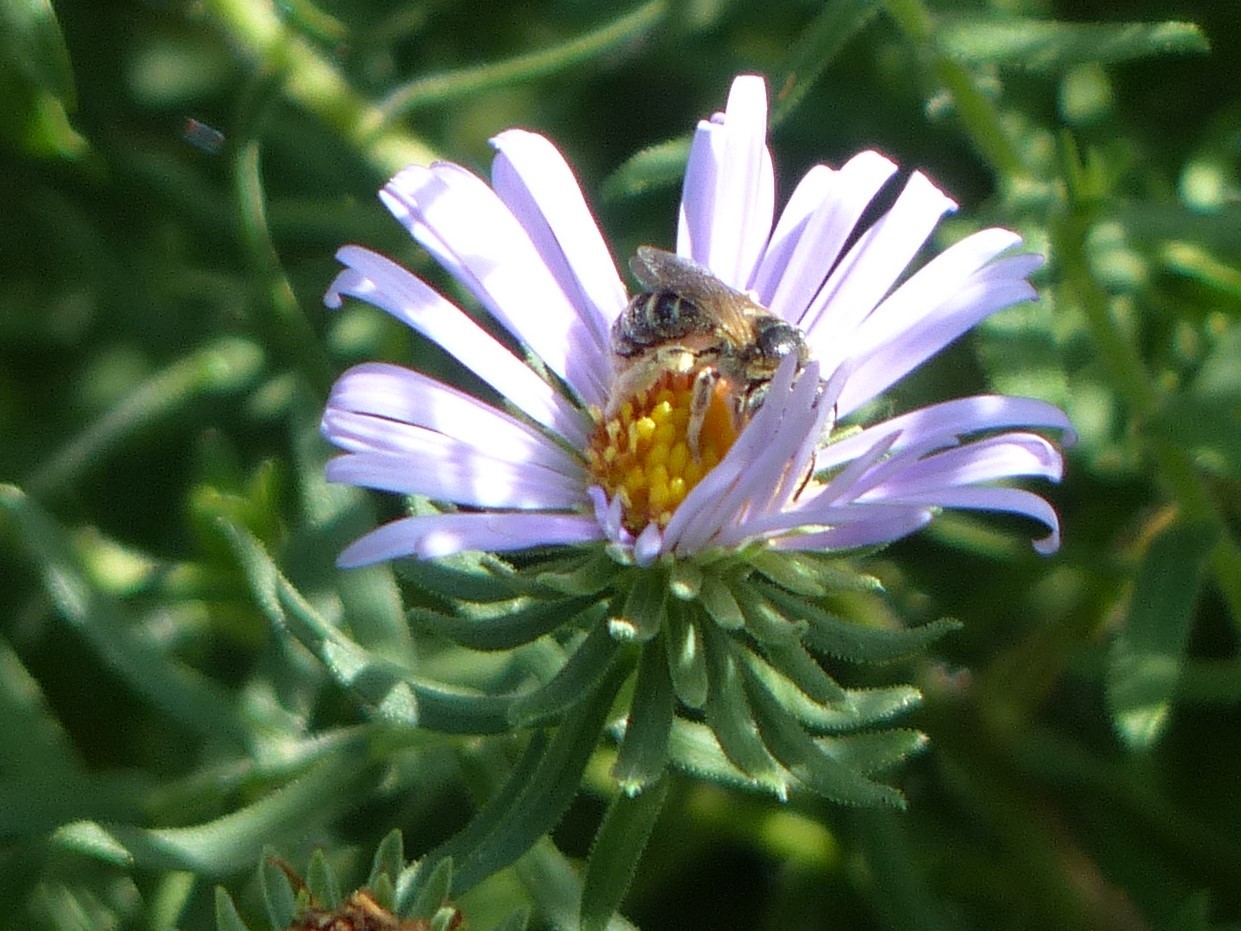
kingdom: Animalia
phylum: Arthropoda
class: Insecta
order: Hymenoptera
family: Halictidae
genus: Halictus
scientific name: Halictus ligatus
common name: Ligated furrow bee
